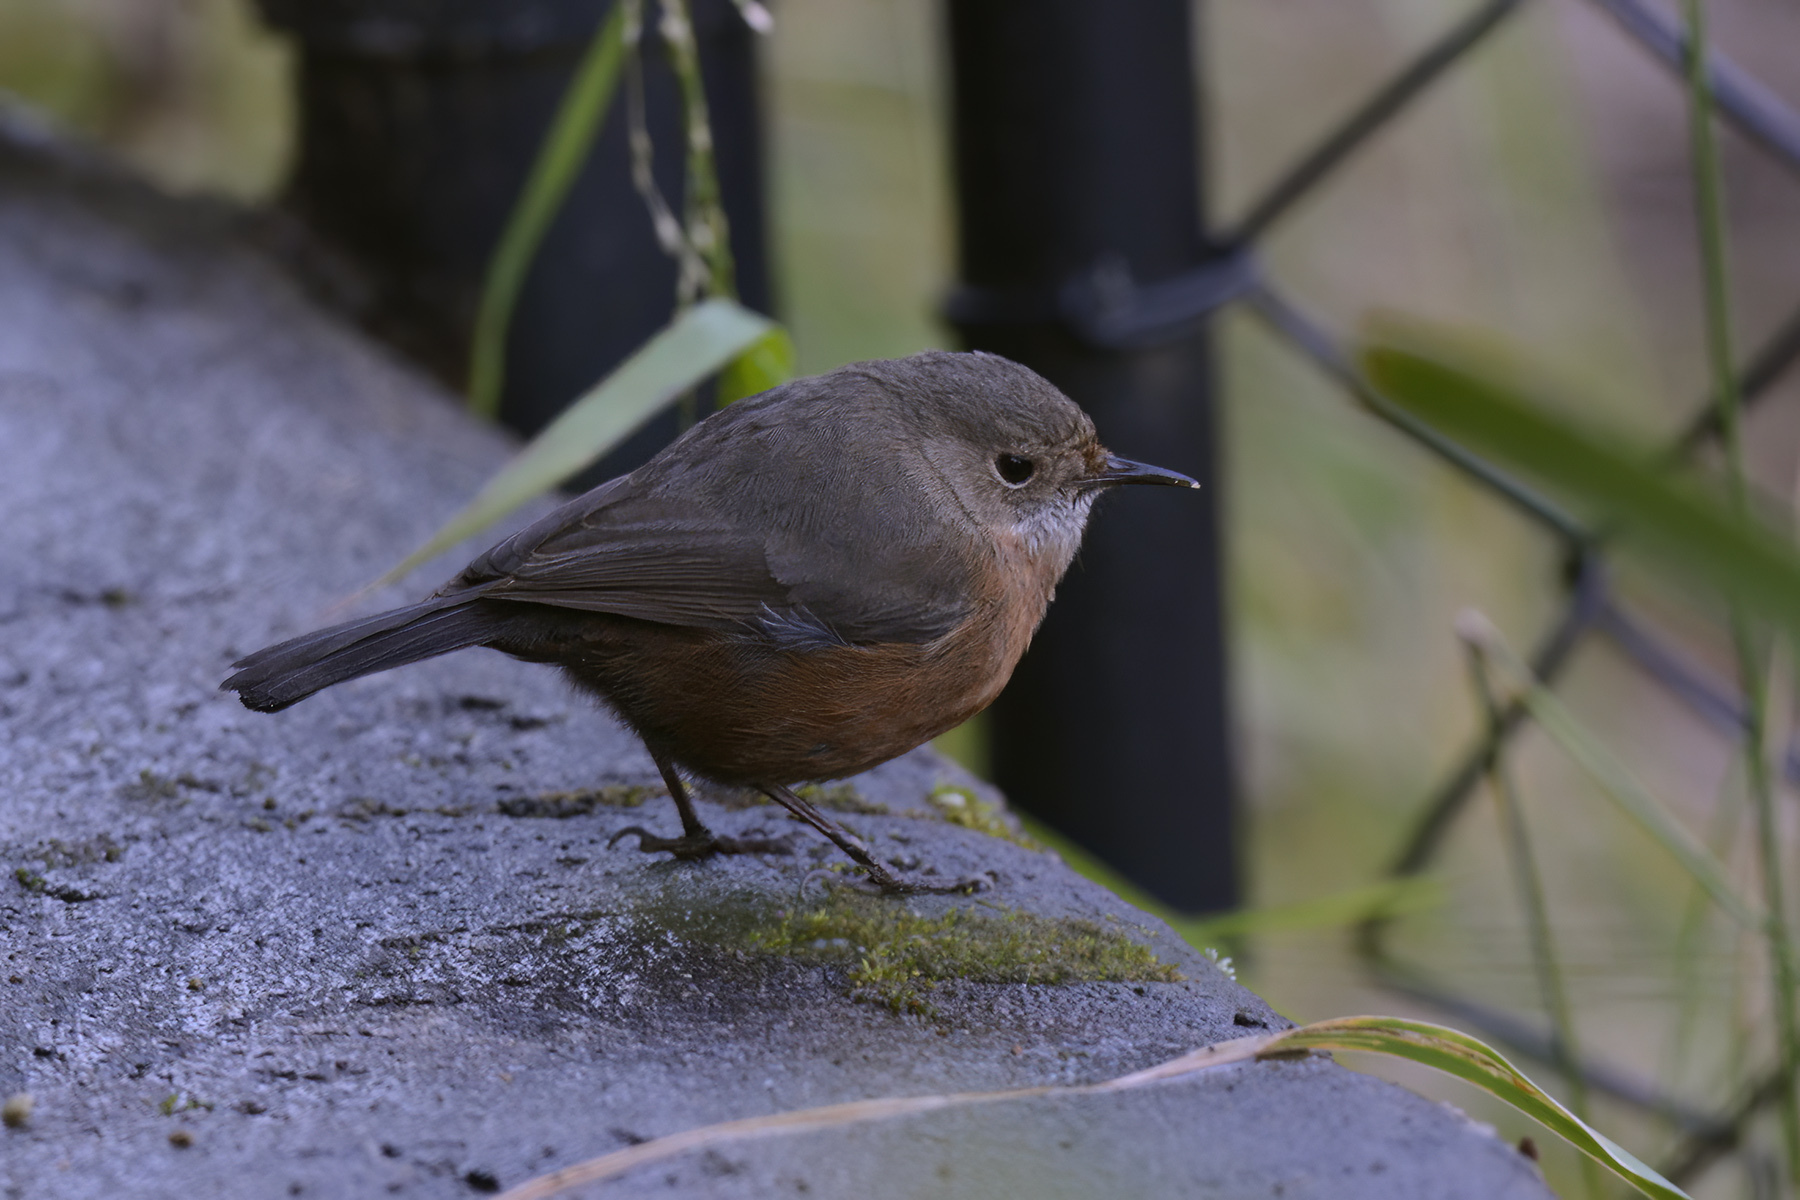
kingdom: Animalia
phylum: Chordata
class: Aves
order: Passeriformes
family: Acanthizidae
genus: Origma
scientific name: Origma solitaria
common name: Rockwarbler
